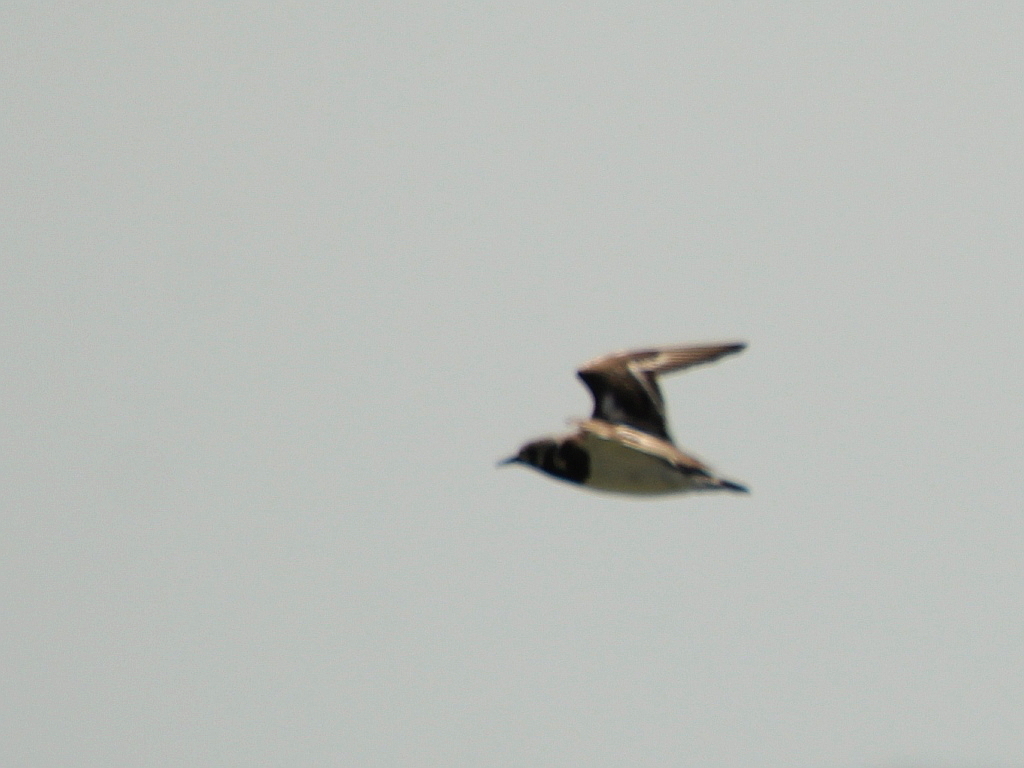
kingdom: Animalia
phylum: Chordata
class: Aves
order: Charadriiformes
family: Scolopacidae
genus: Arenaria
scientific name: Arenaria interpres
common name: Ruddy turnstone
